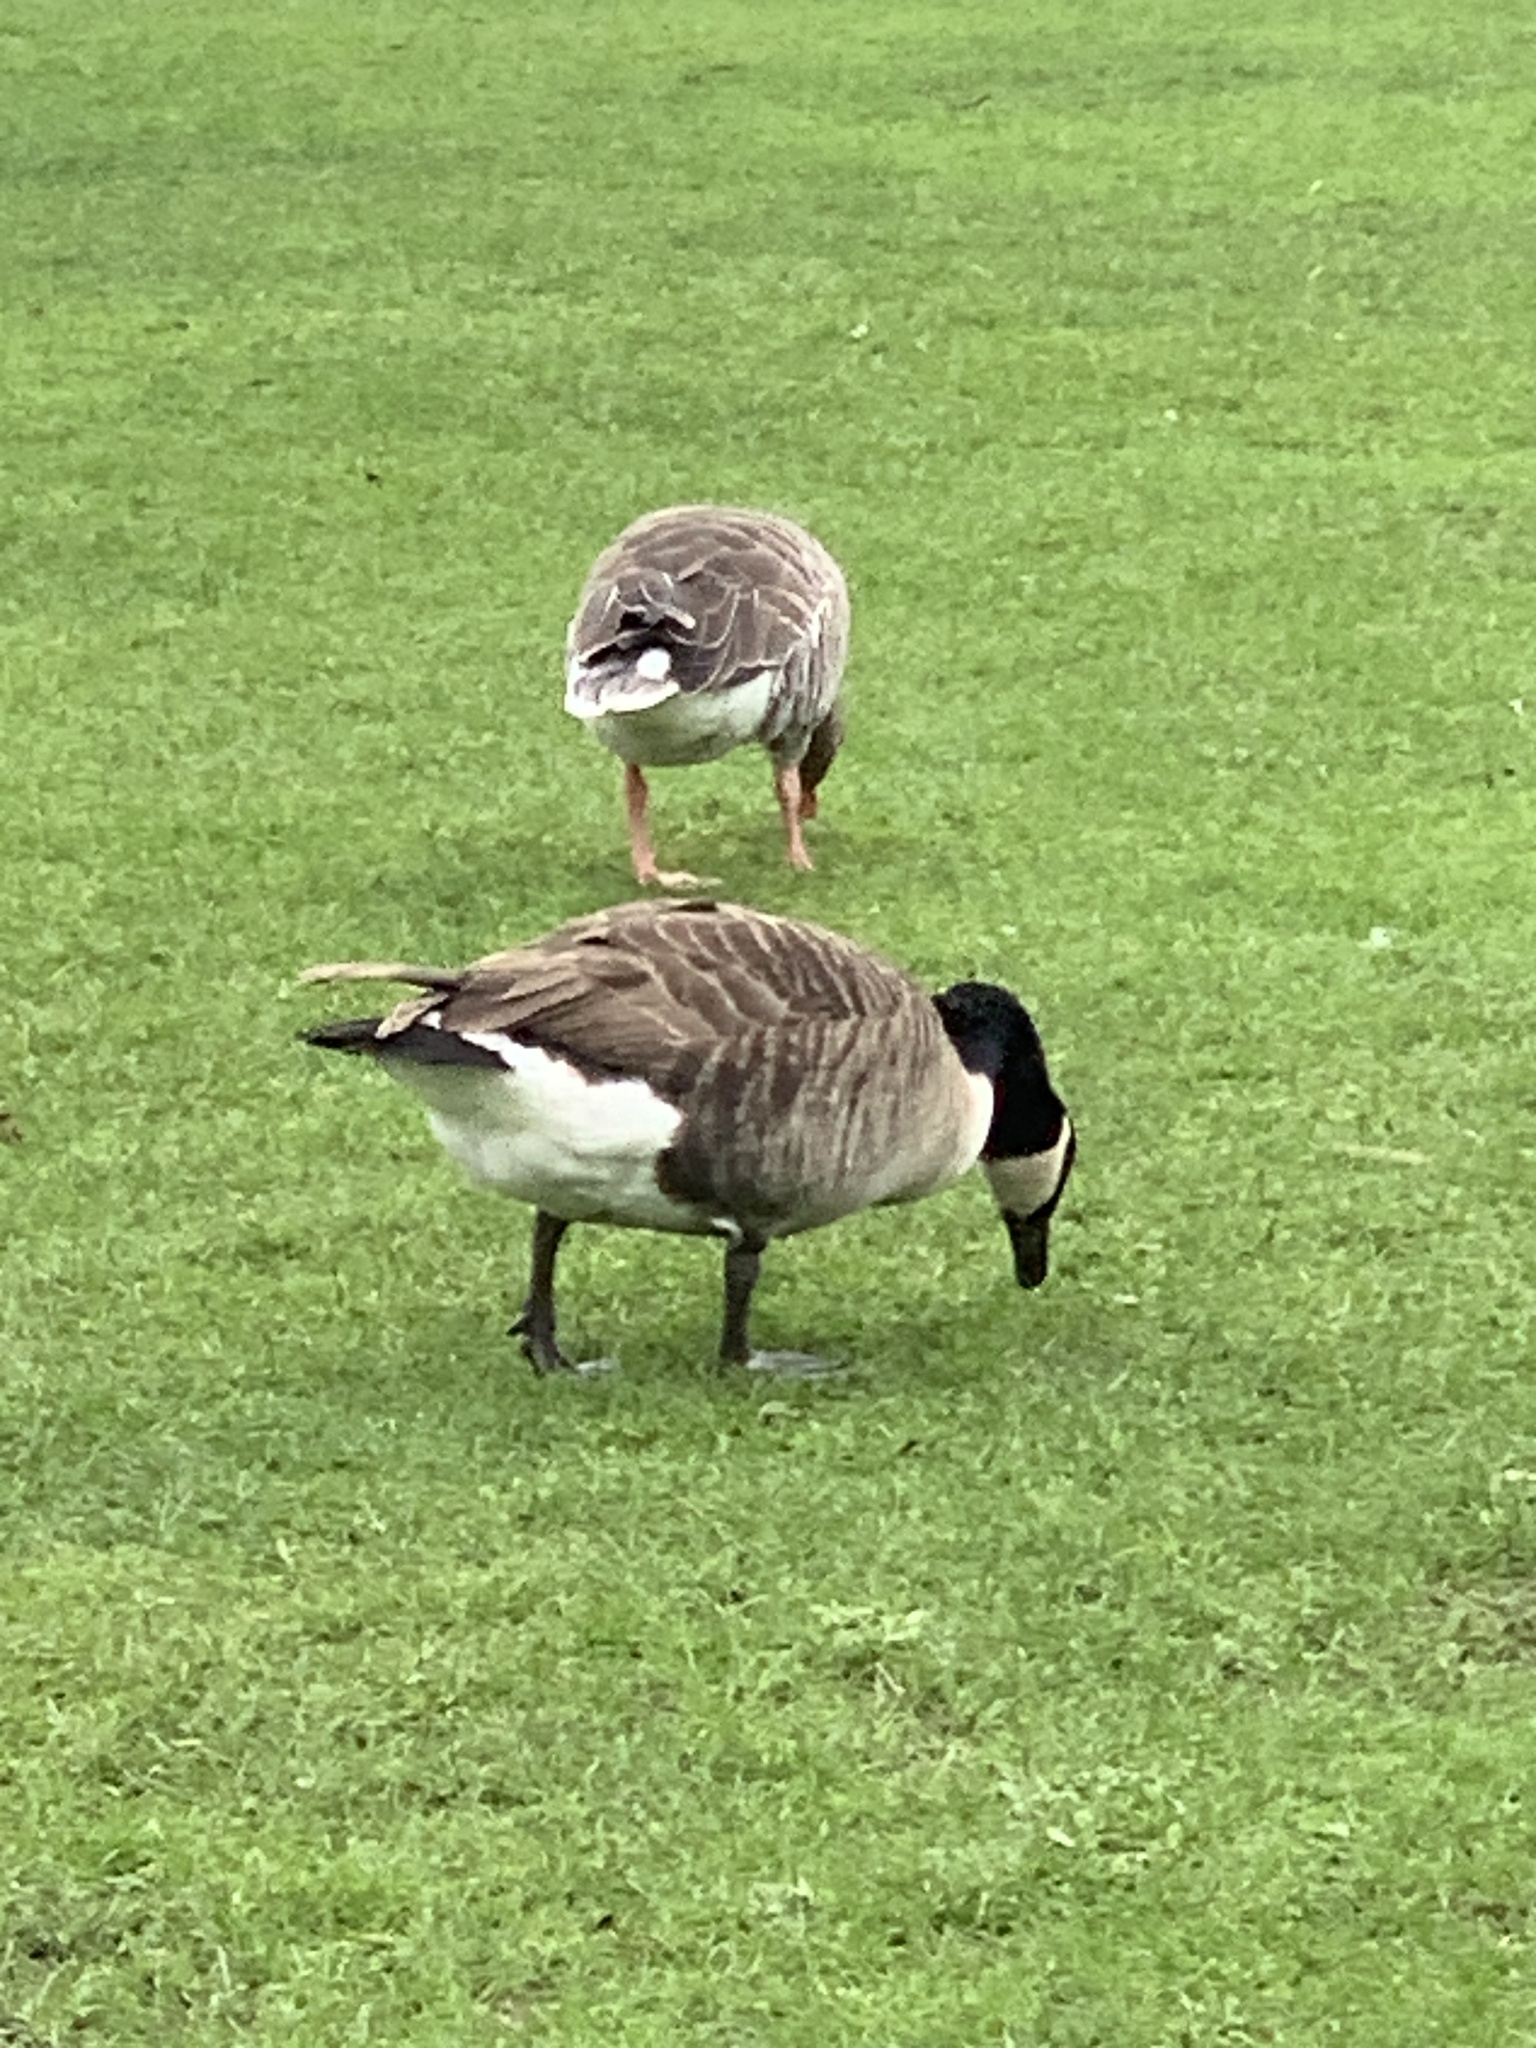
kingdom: Animalia
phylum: Chordata
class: Aves
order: Anseriformes
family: Anatidae
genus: Branta
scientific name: Branta canadensis
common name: Canada goose
